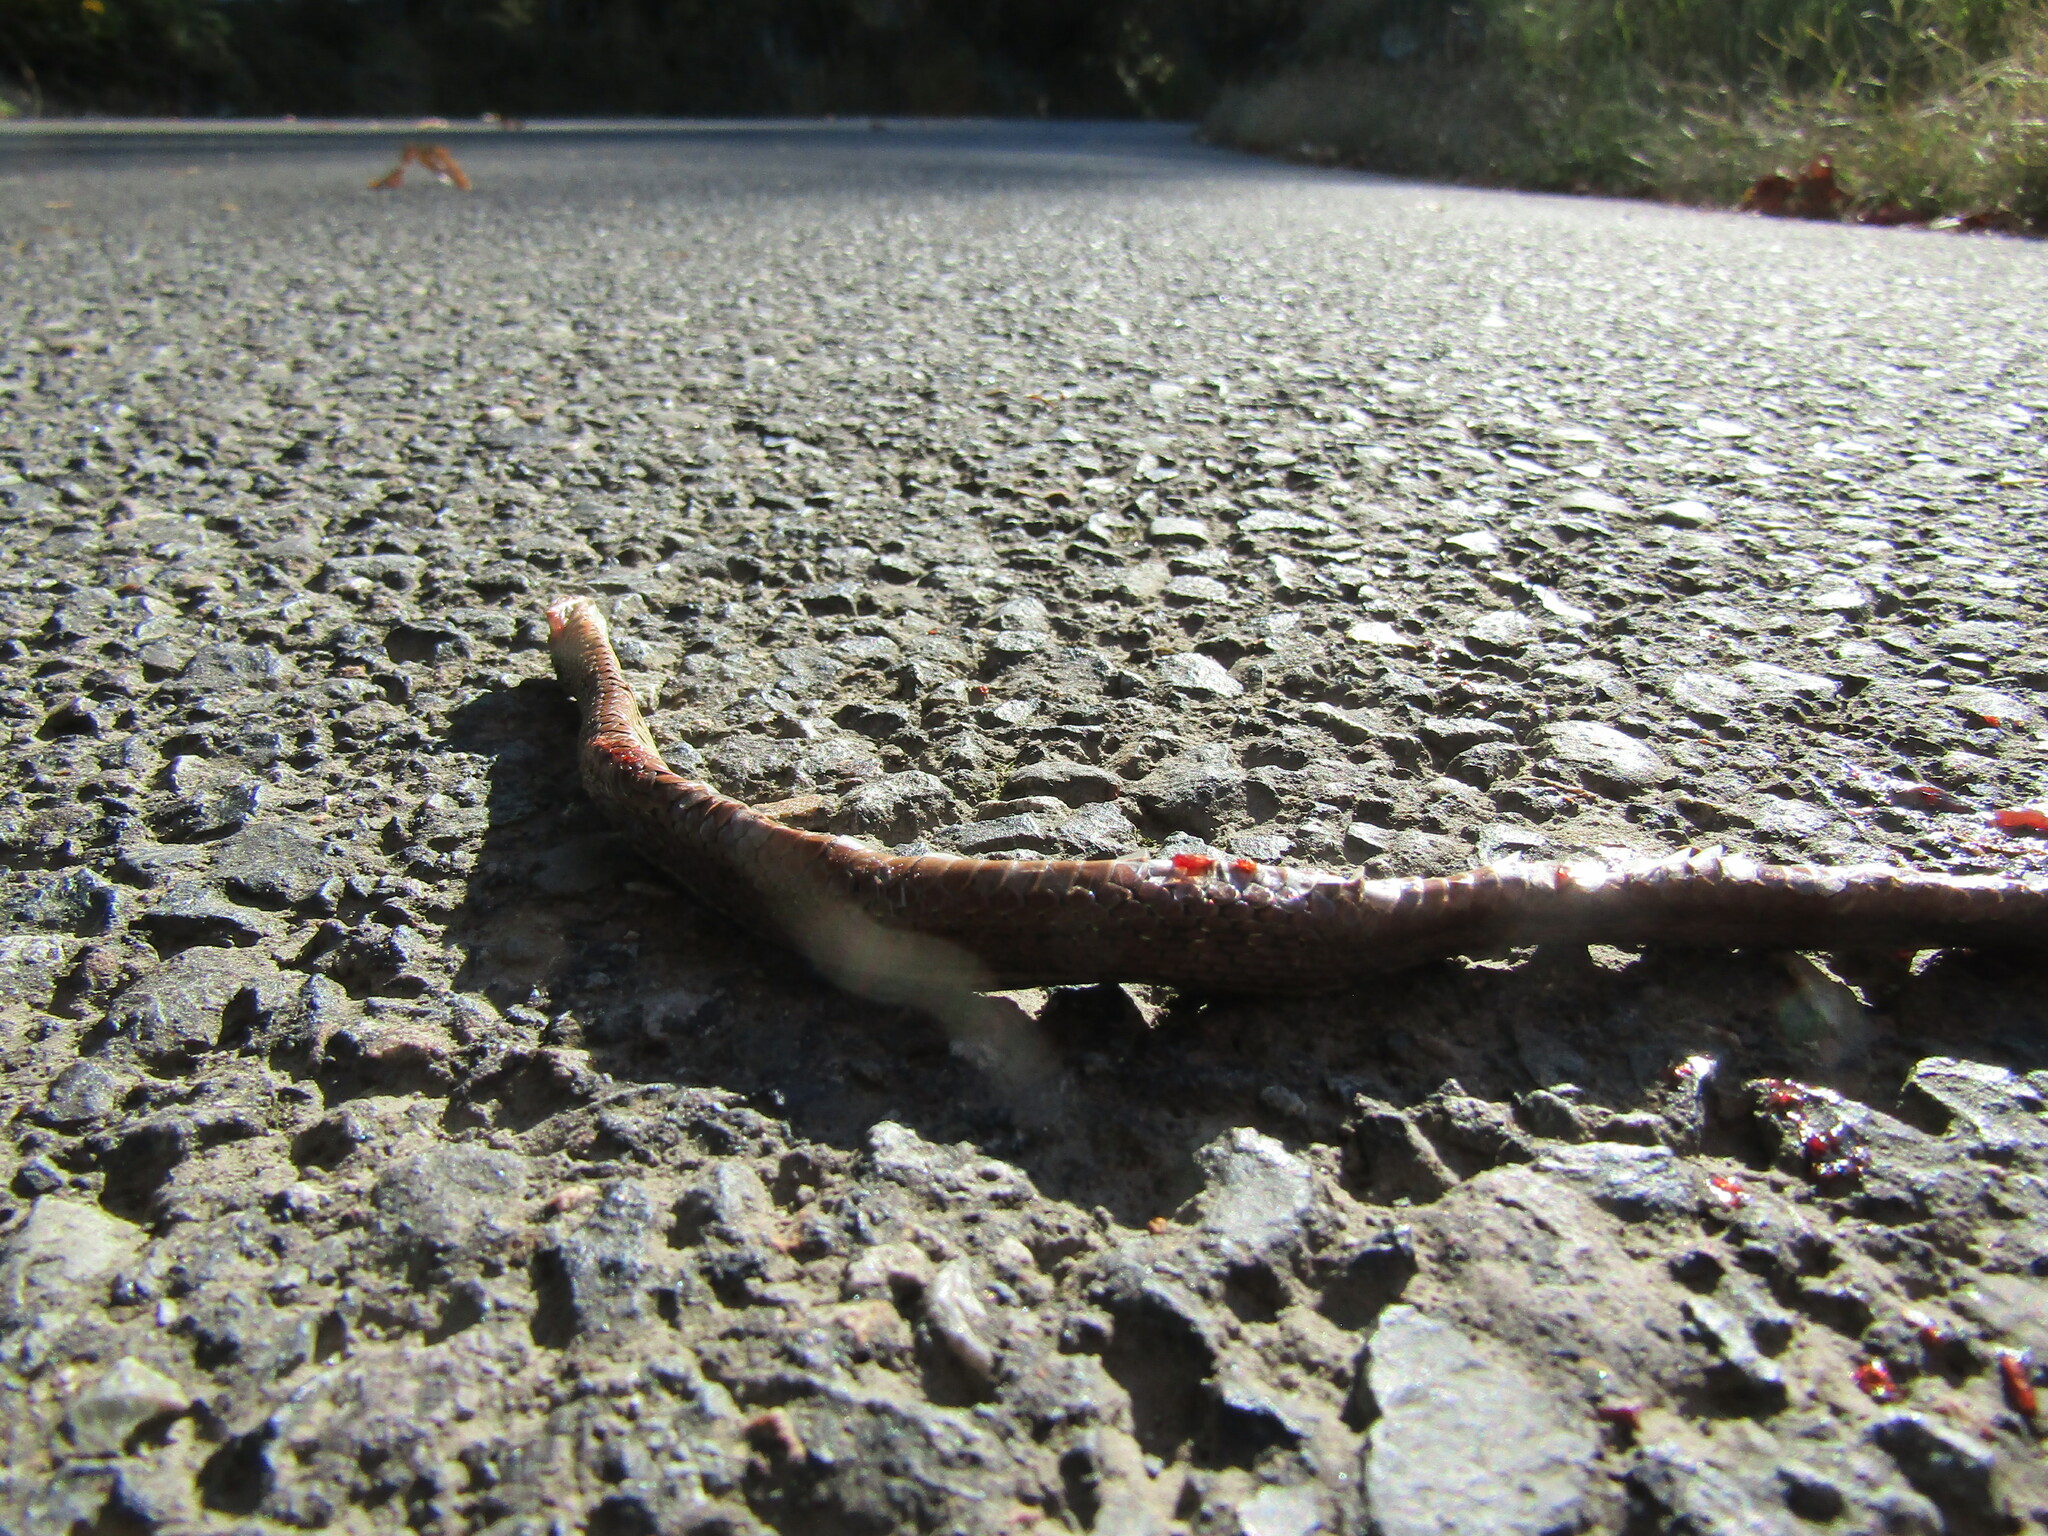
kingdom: Animalia
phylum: Chordata
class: Squamata
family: Colubridae
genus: Thamnophis
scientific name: Thamnophis ordinoides
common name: Northwestern garter snake
